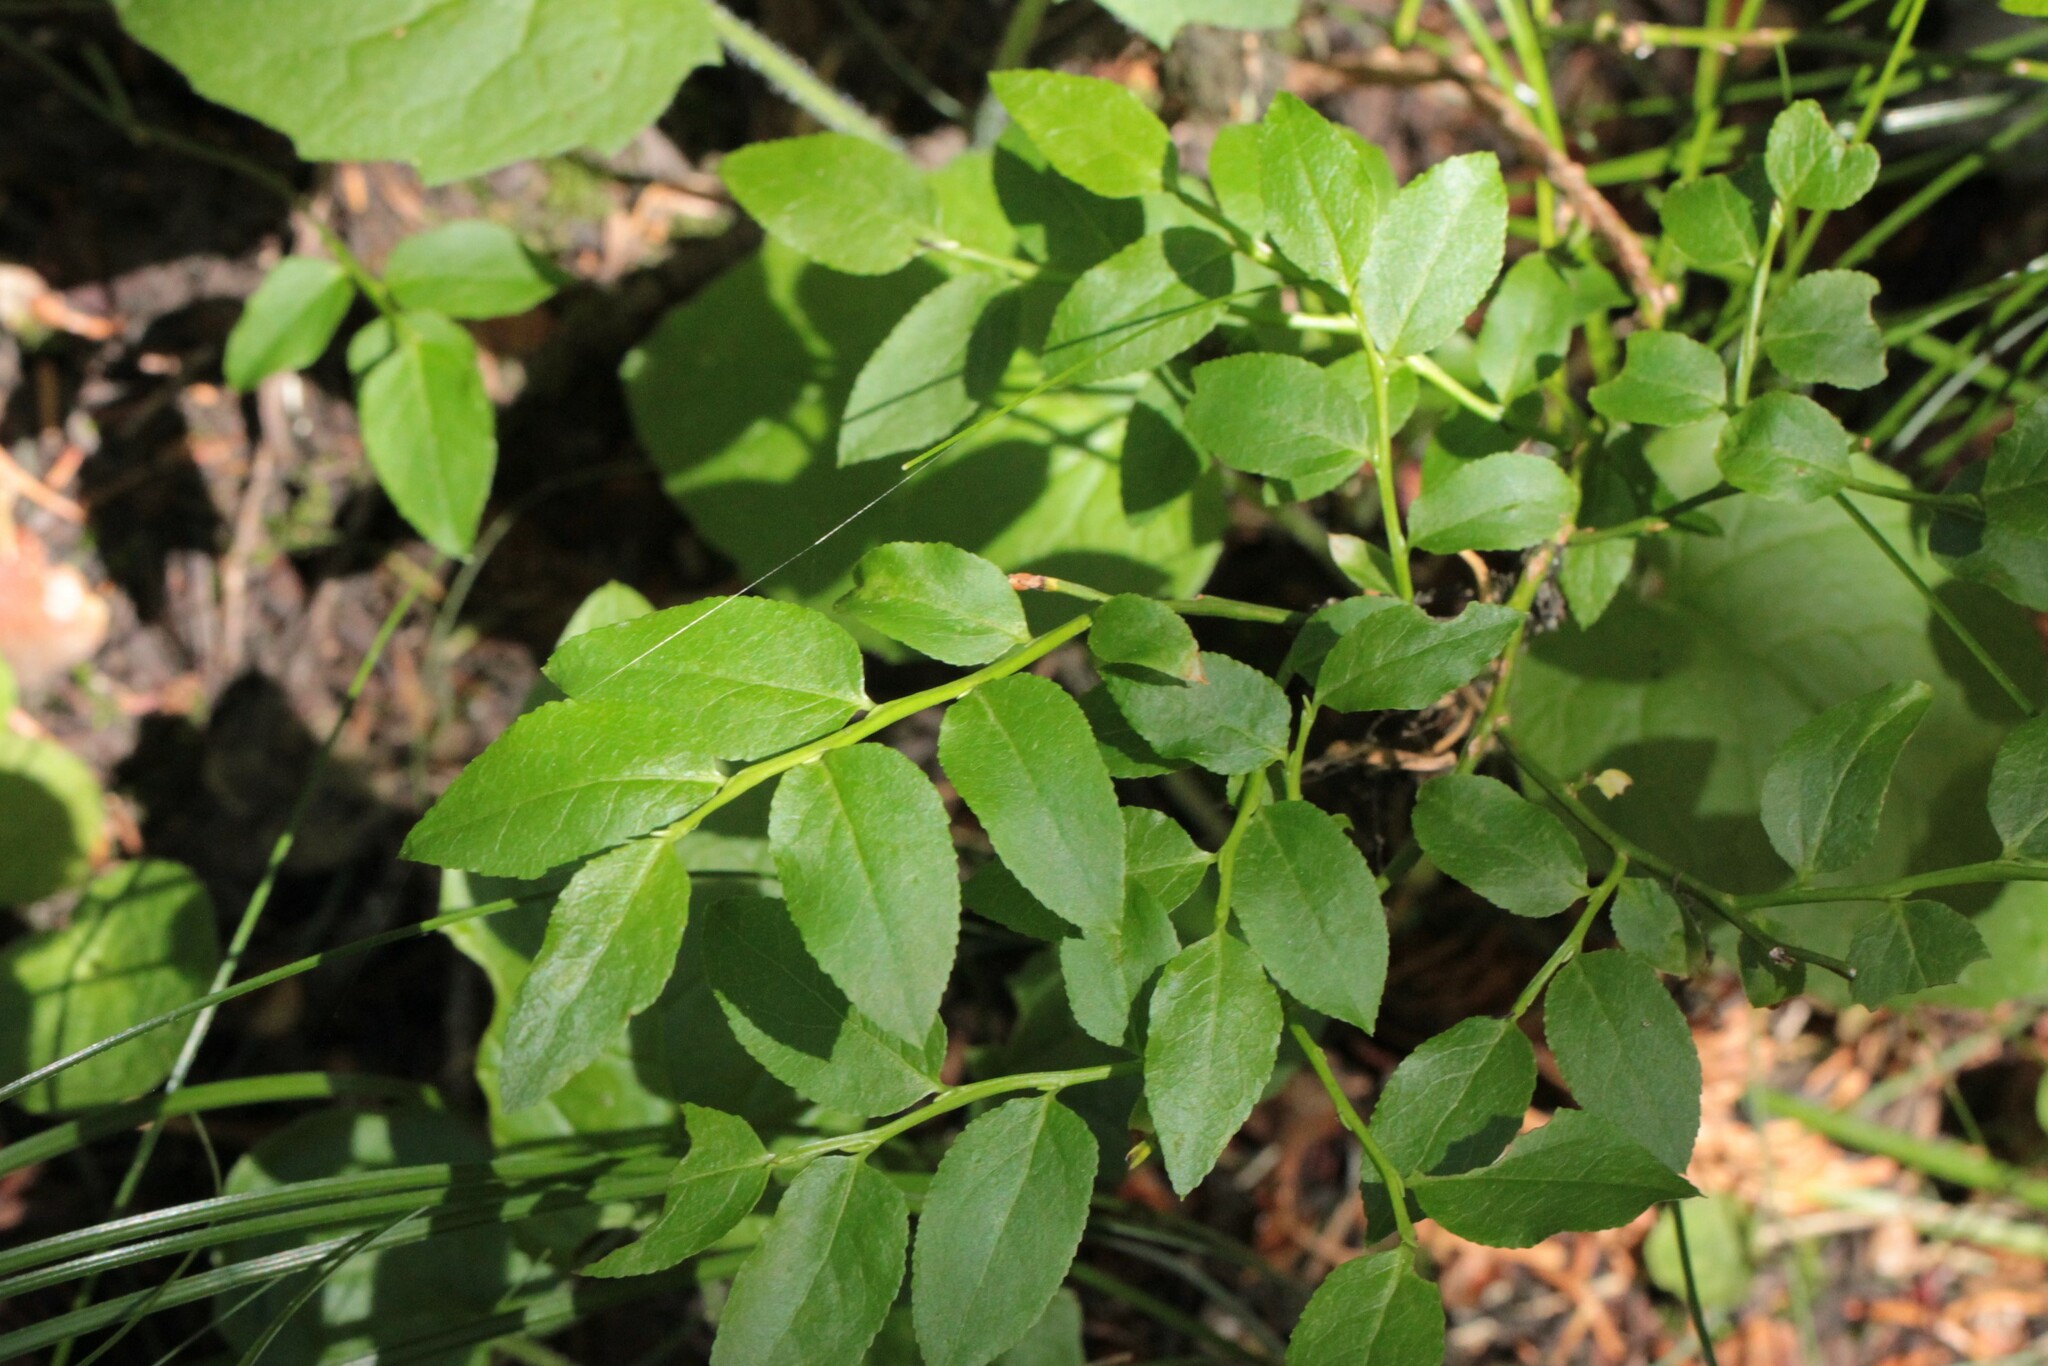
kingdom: Plantae
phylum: Tracheophyta
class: Magnoliopsida
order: Ericales
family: Ericaceae
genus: Vaccinium
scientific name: Vaccinium myrtillus
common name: Bilberry
